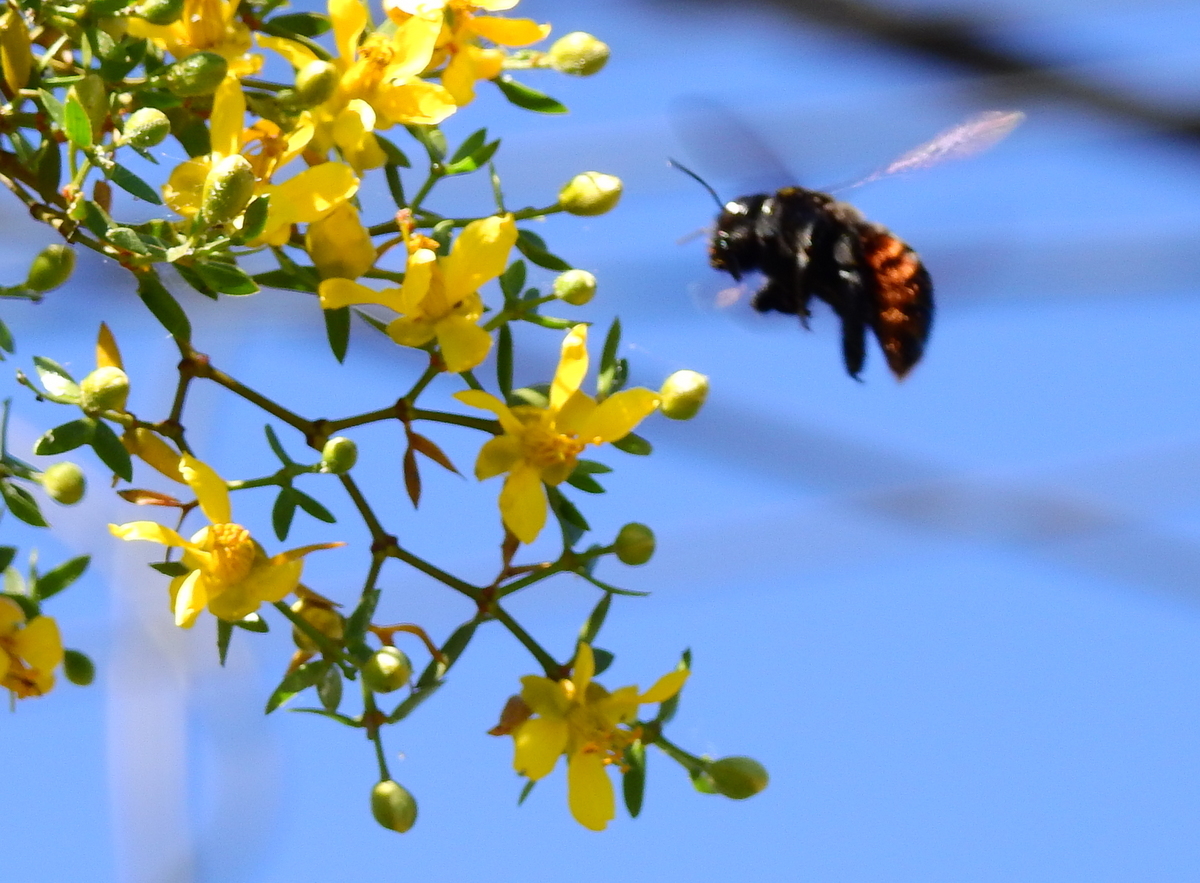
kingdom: Animalia
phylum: Arthropoda
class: Insecta
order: Hymenoptera
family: Apidae
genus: Xylocopa
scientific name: Xylocopa augusti
